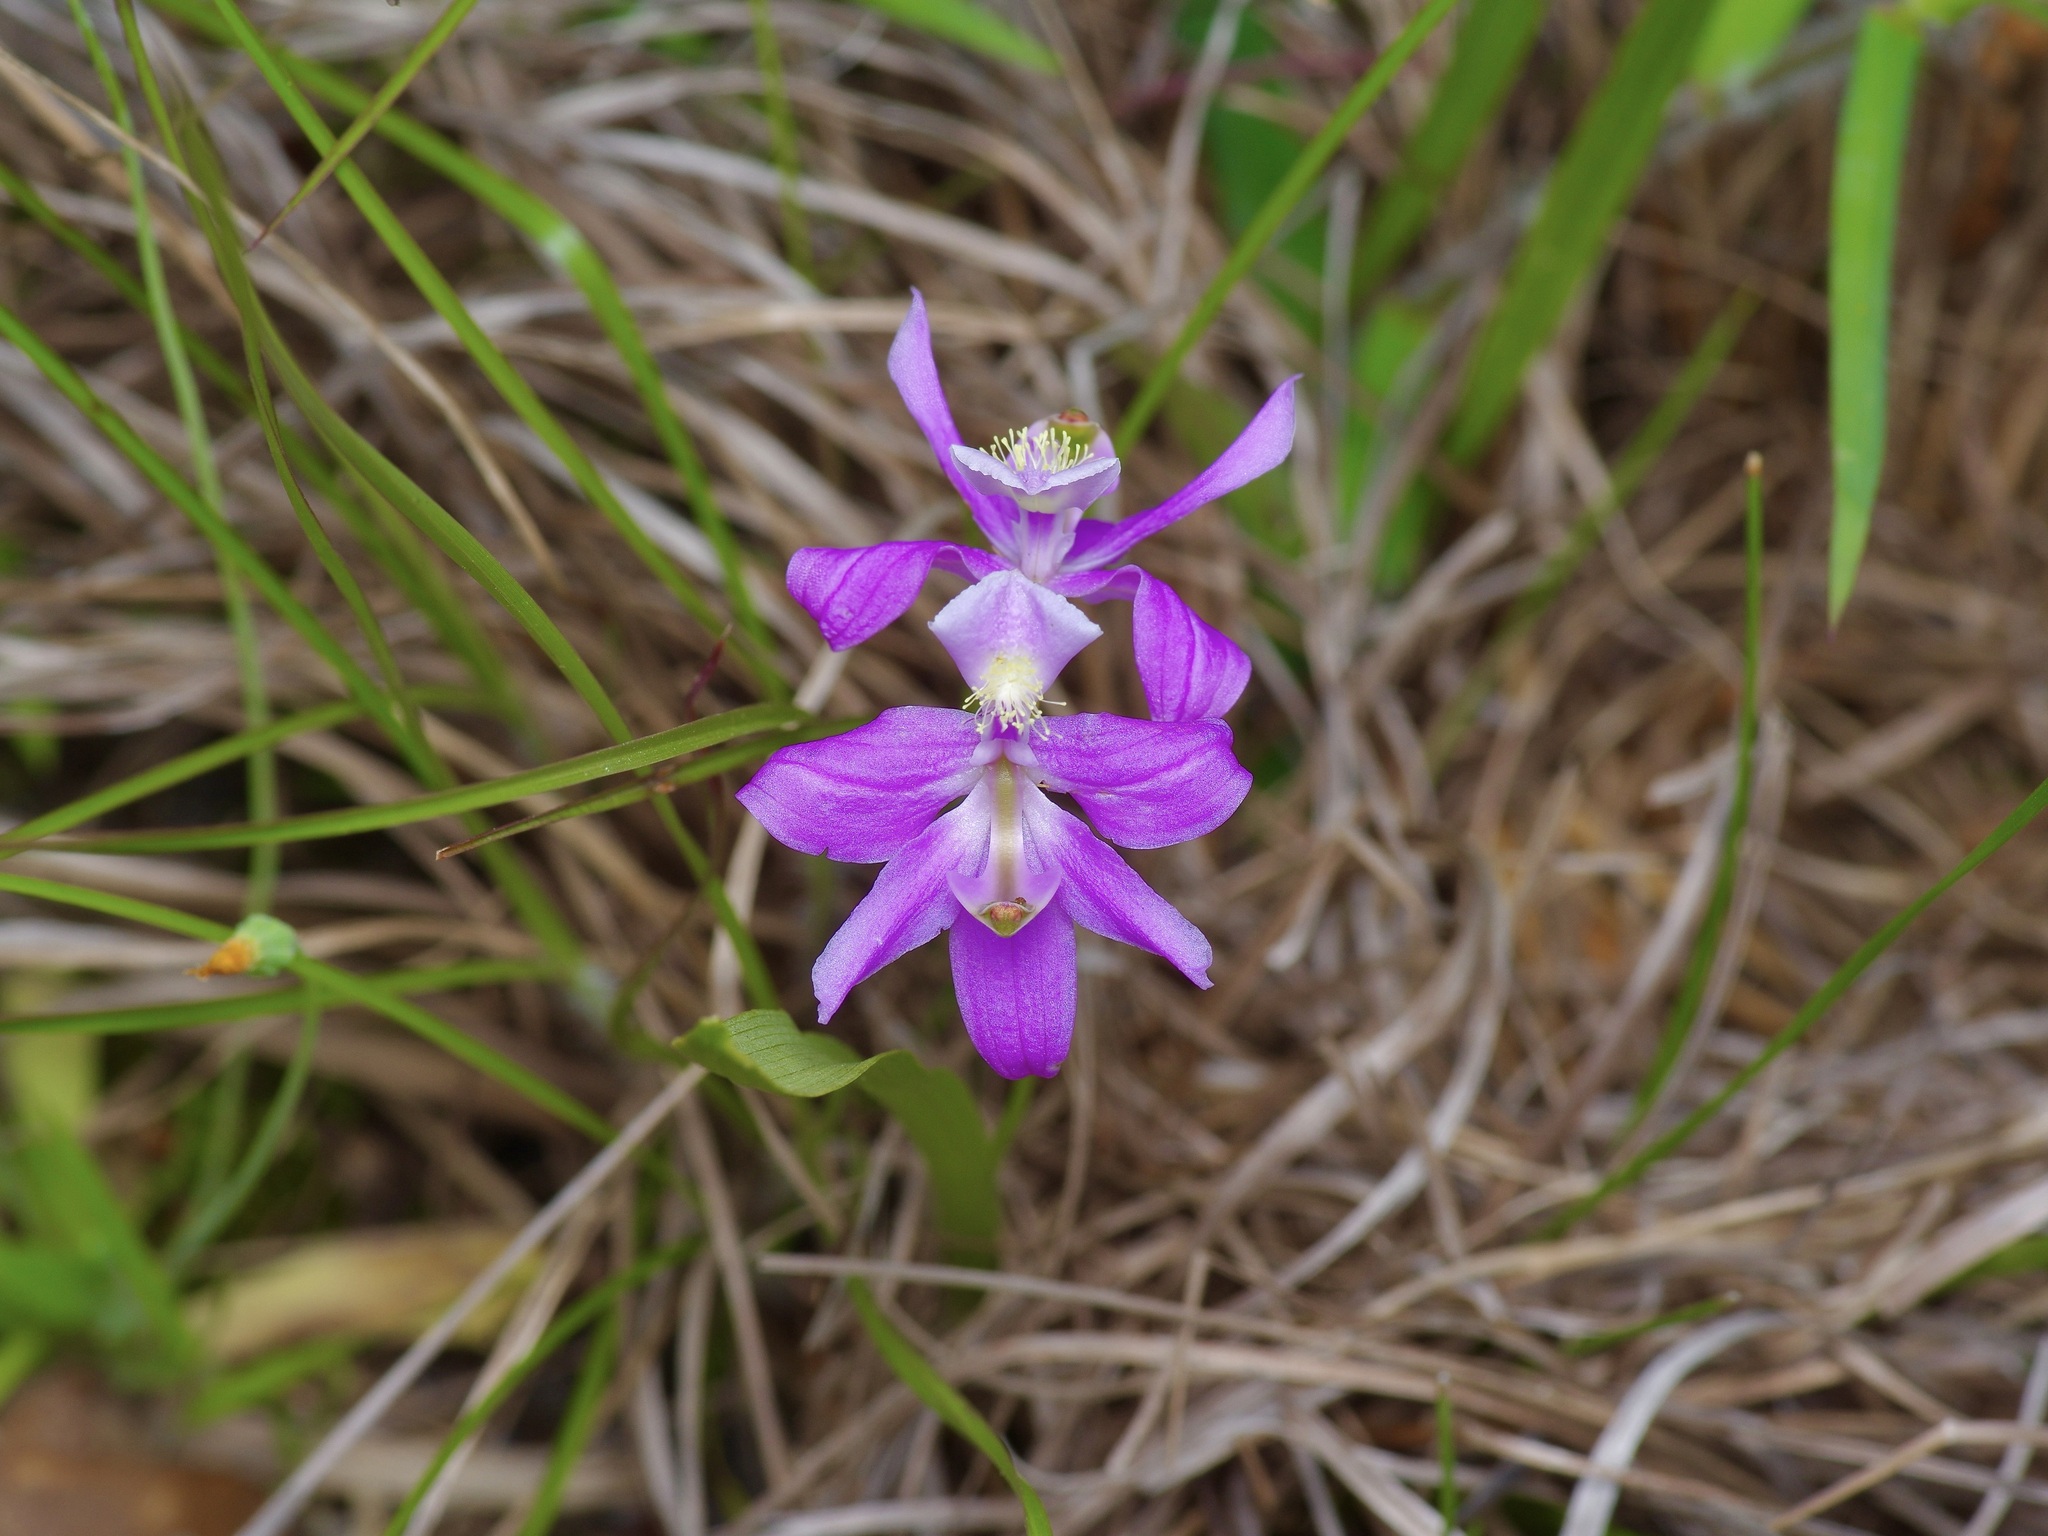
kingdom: Plantae
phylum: Tracheophyta
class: Liliopsida
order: Asparagales
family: Orchidaceae
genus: Calopogon
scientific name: Calopogon oklahomensis
